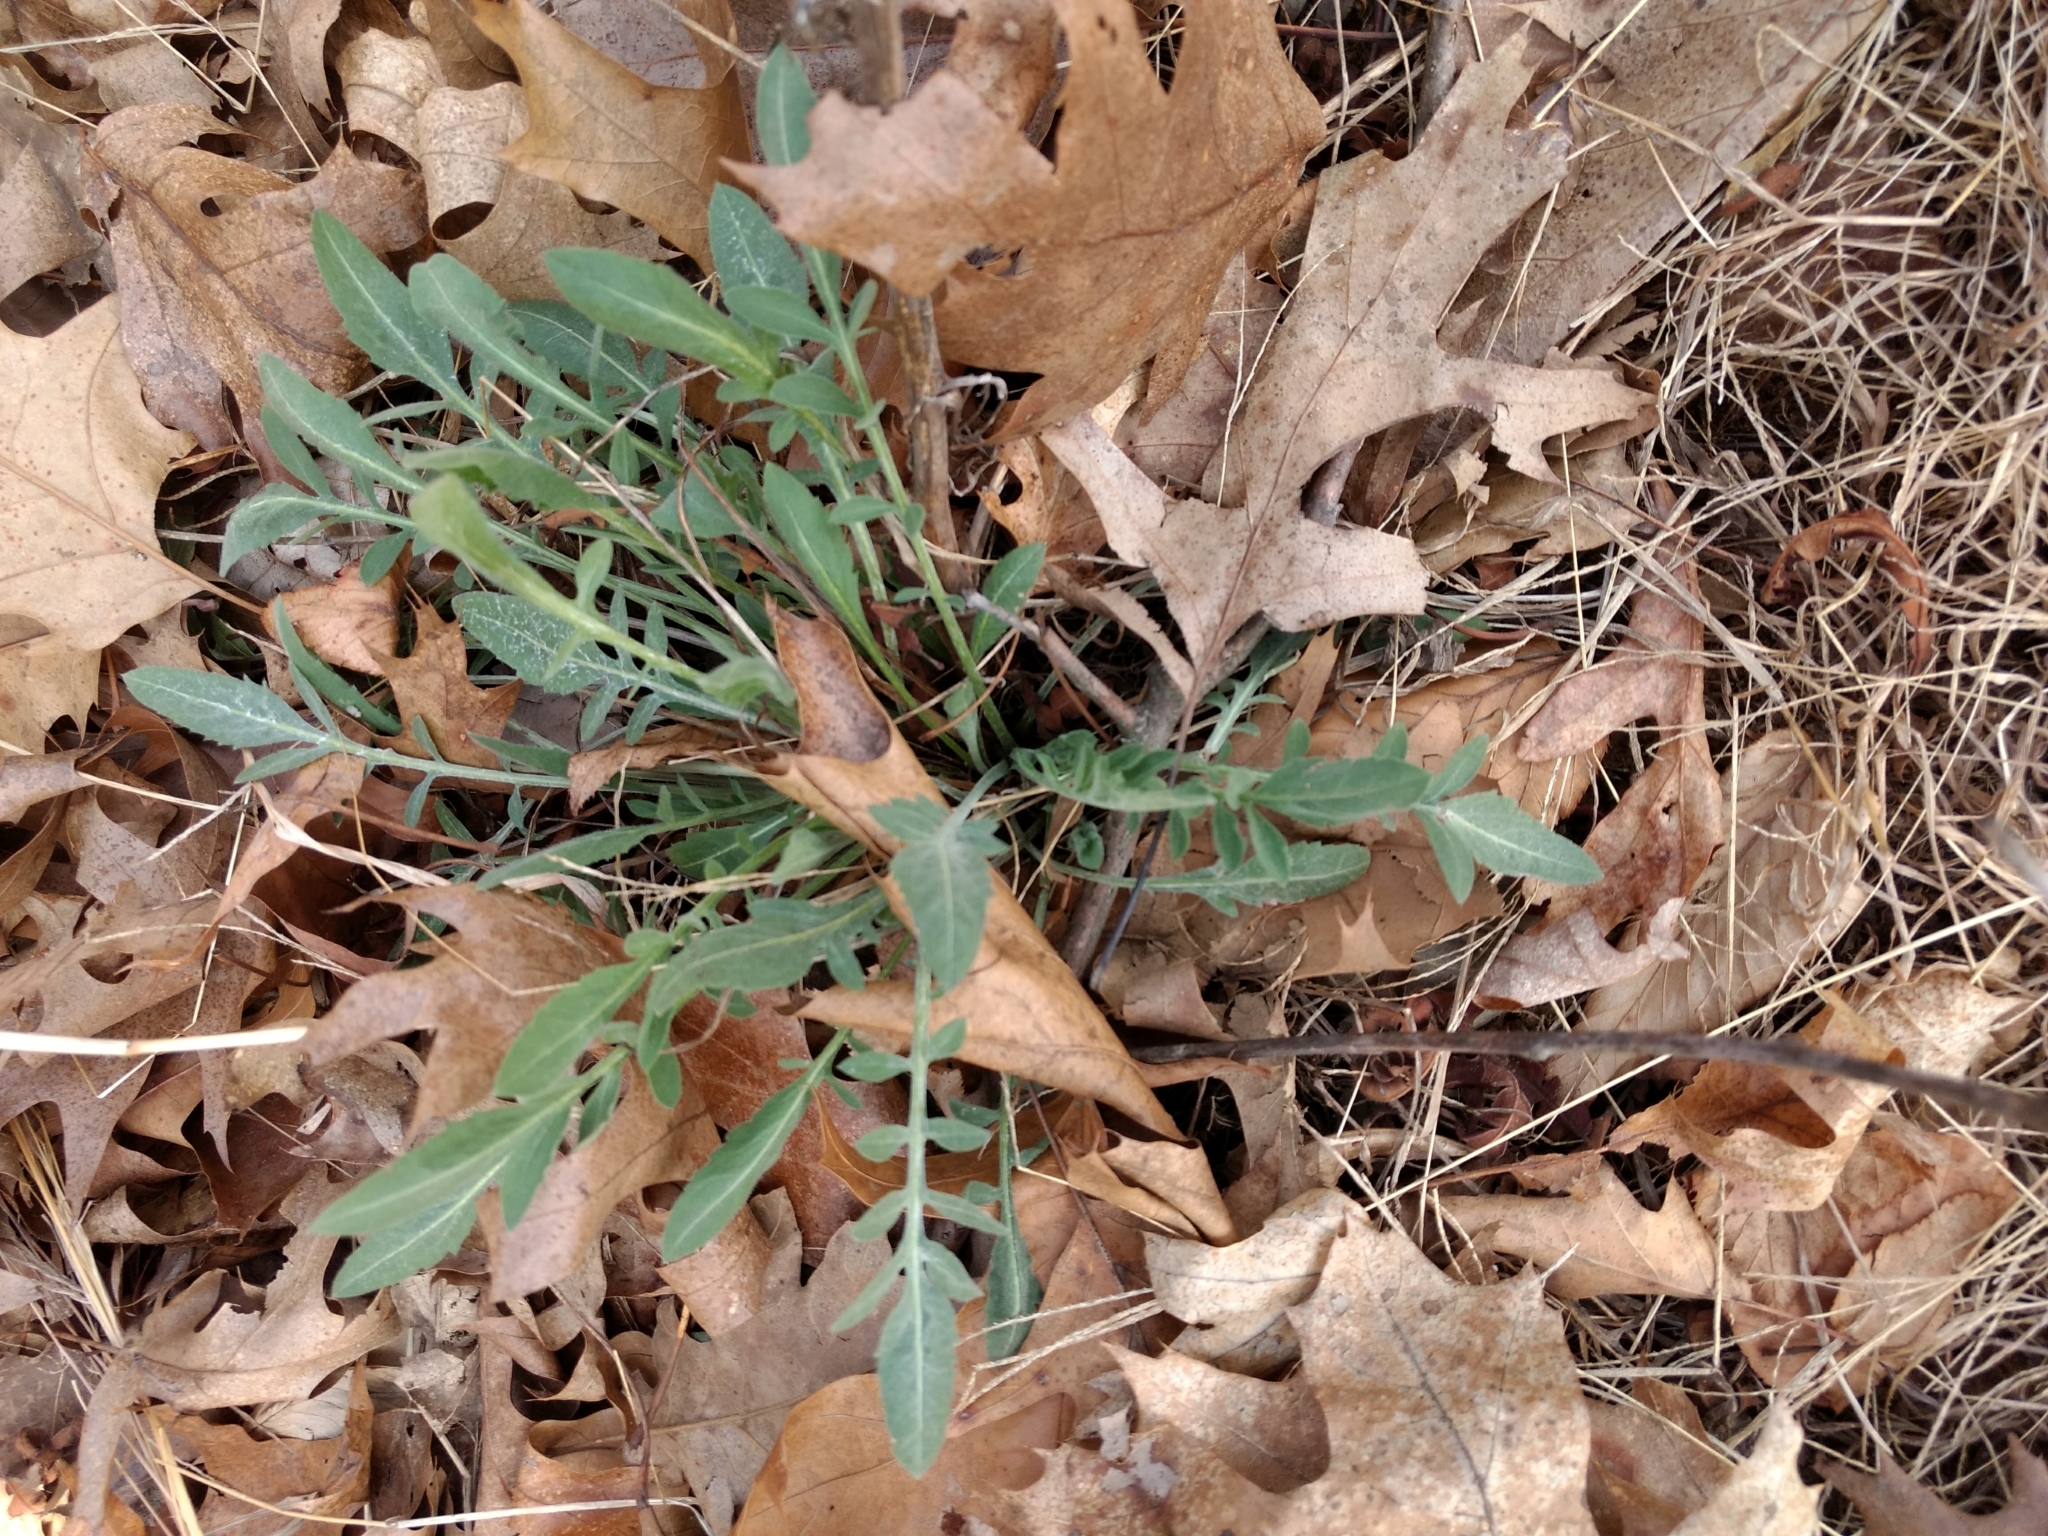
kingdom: Plantae
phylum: Tracheophyta
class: Magnoliopsida
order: Asterales
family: Asteraceae
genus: Centaurea
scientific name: Centaurea stoebe
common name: Spotted knapweed
